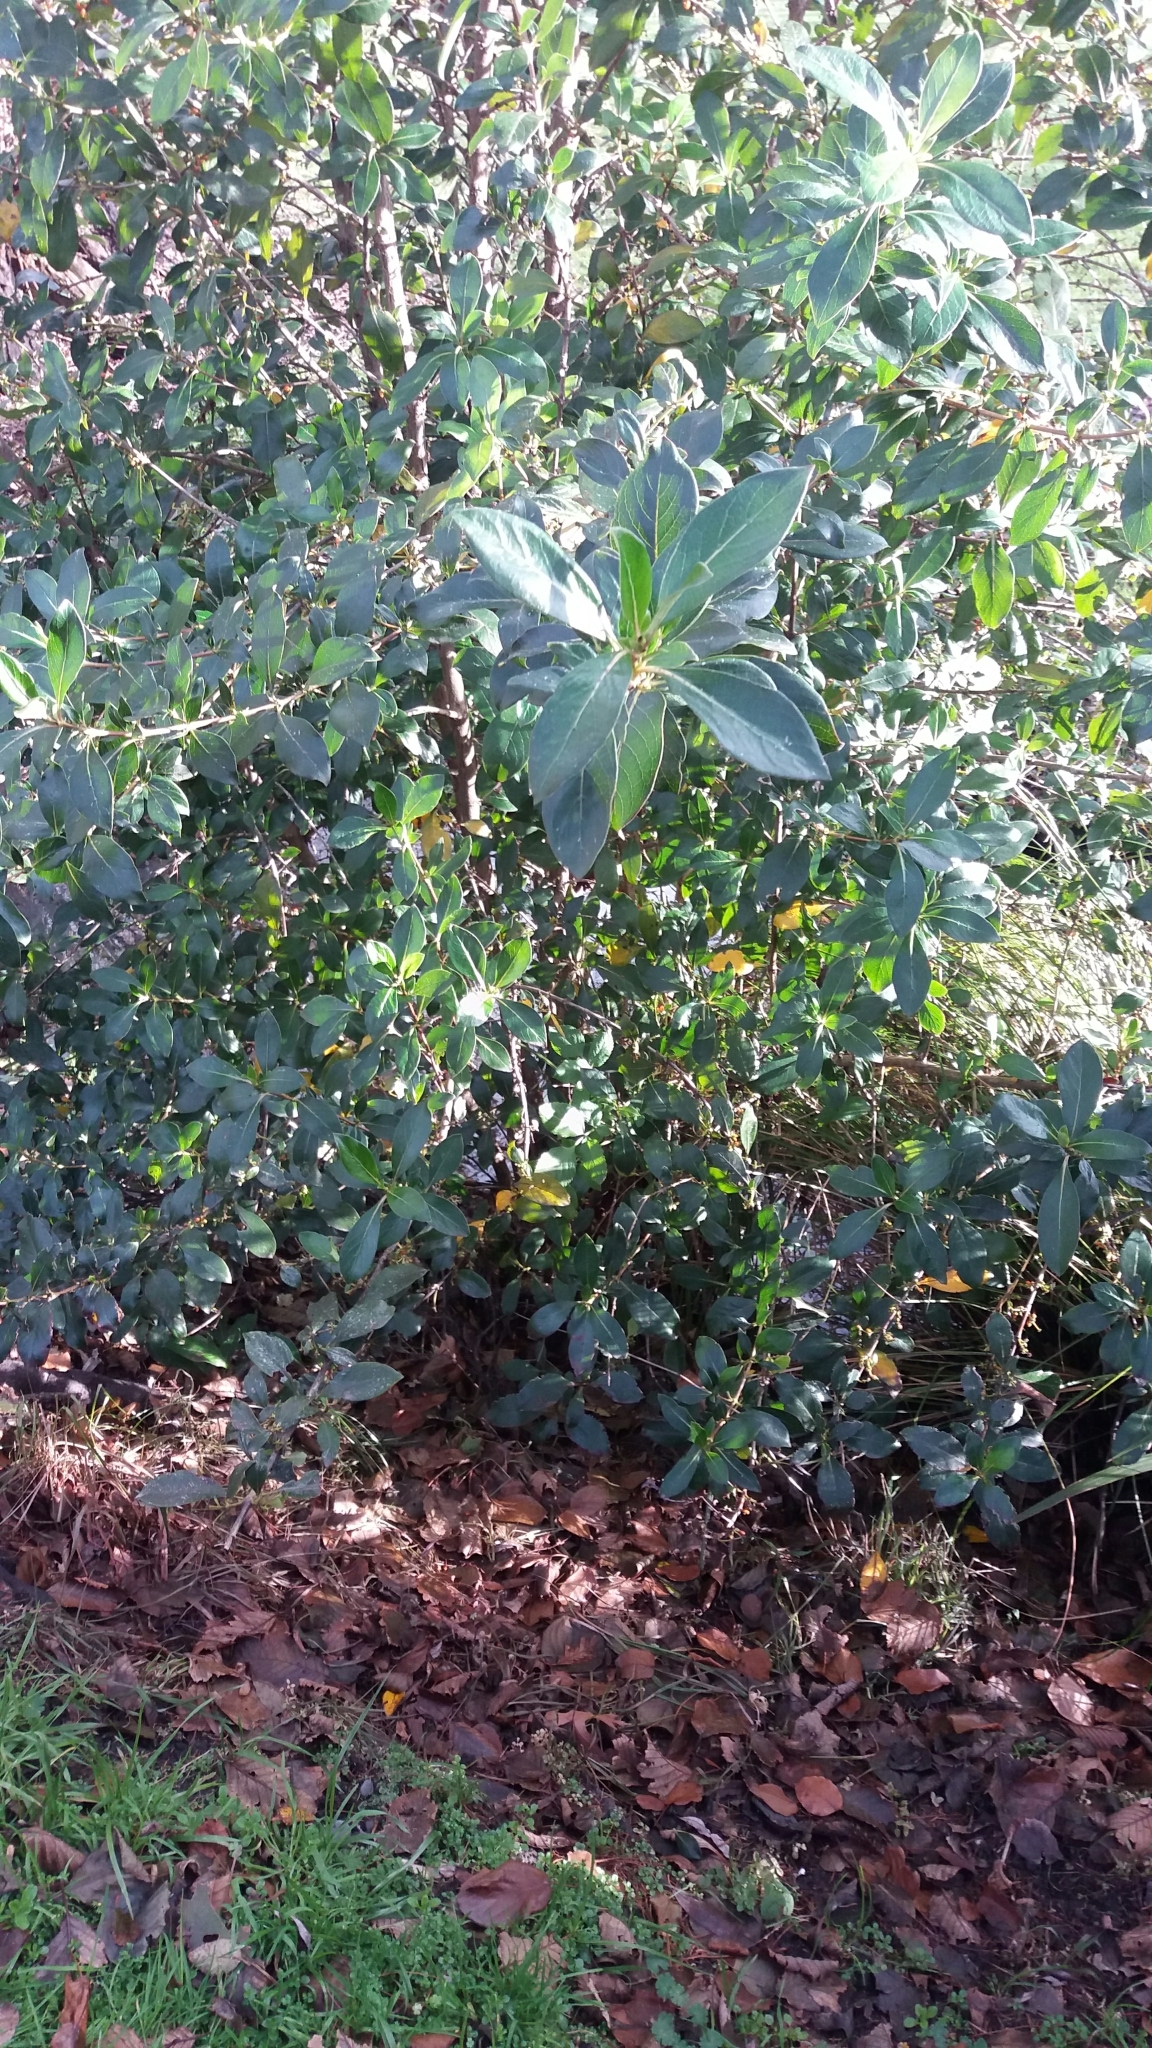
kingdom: Plantae
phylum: Tracheophyta
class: Magnoliopsida
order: Gentianales
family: Rubiaceae
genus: Coprosma
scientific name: Coprosma robusta
